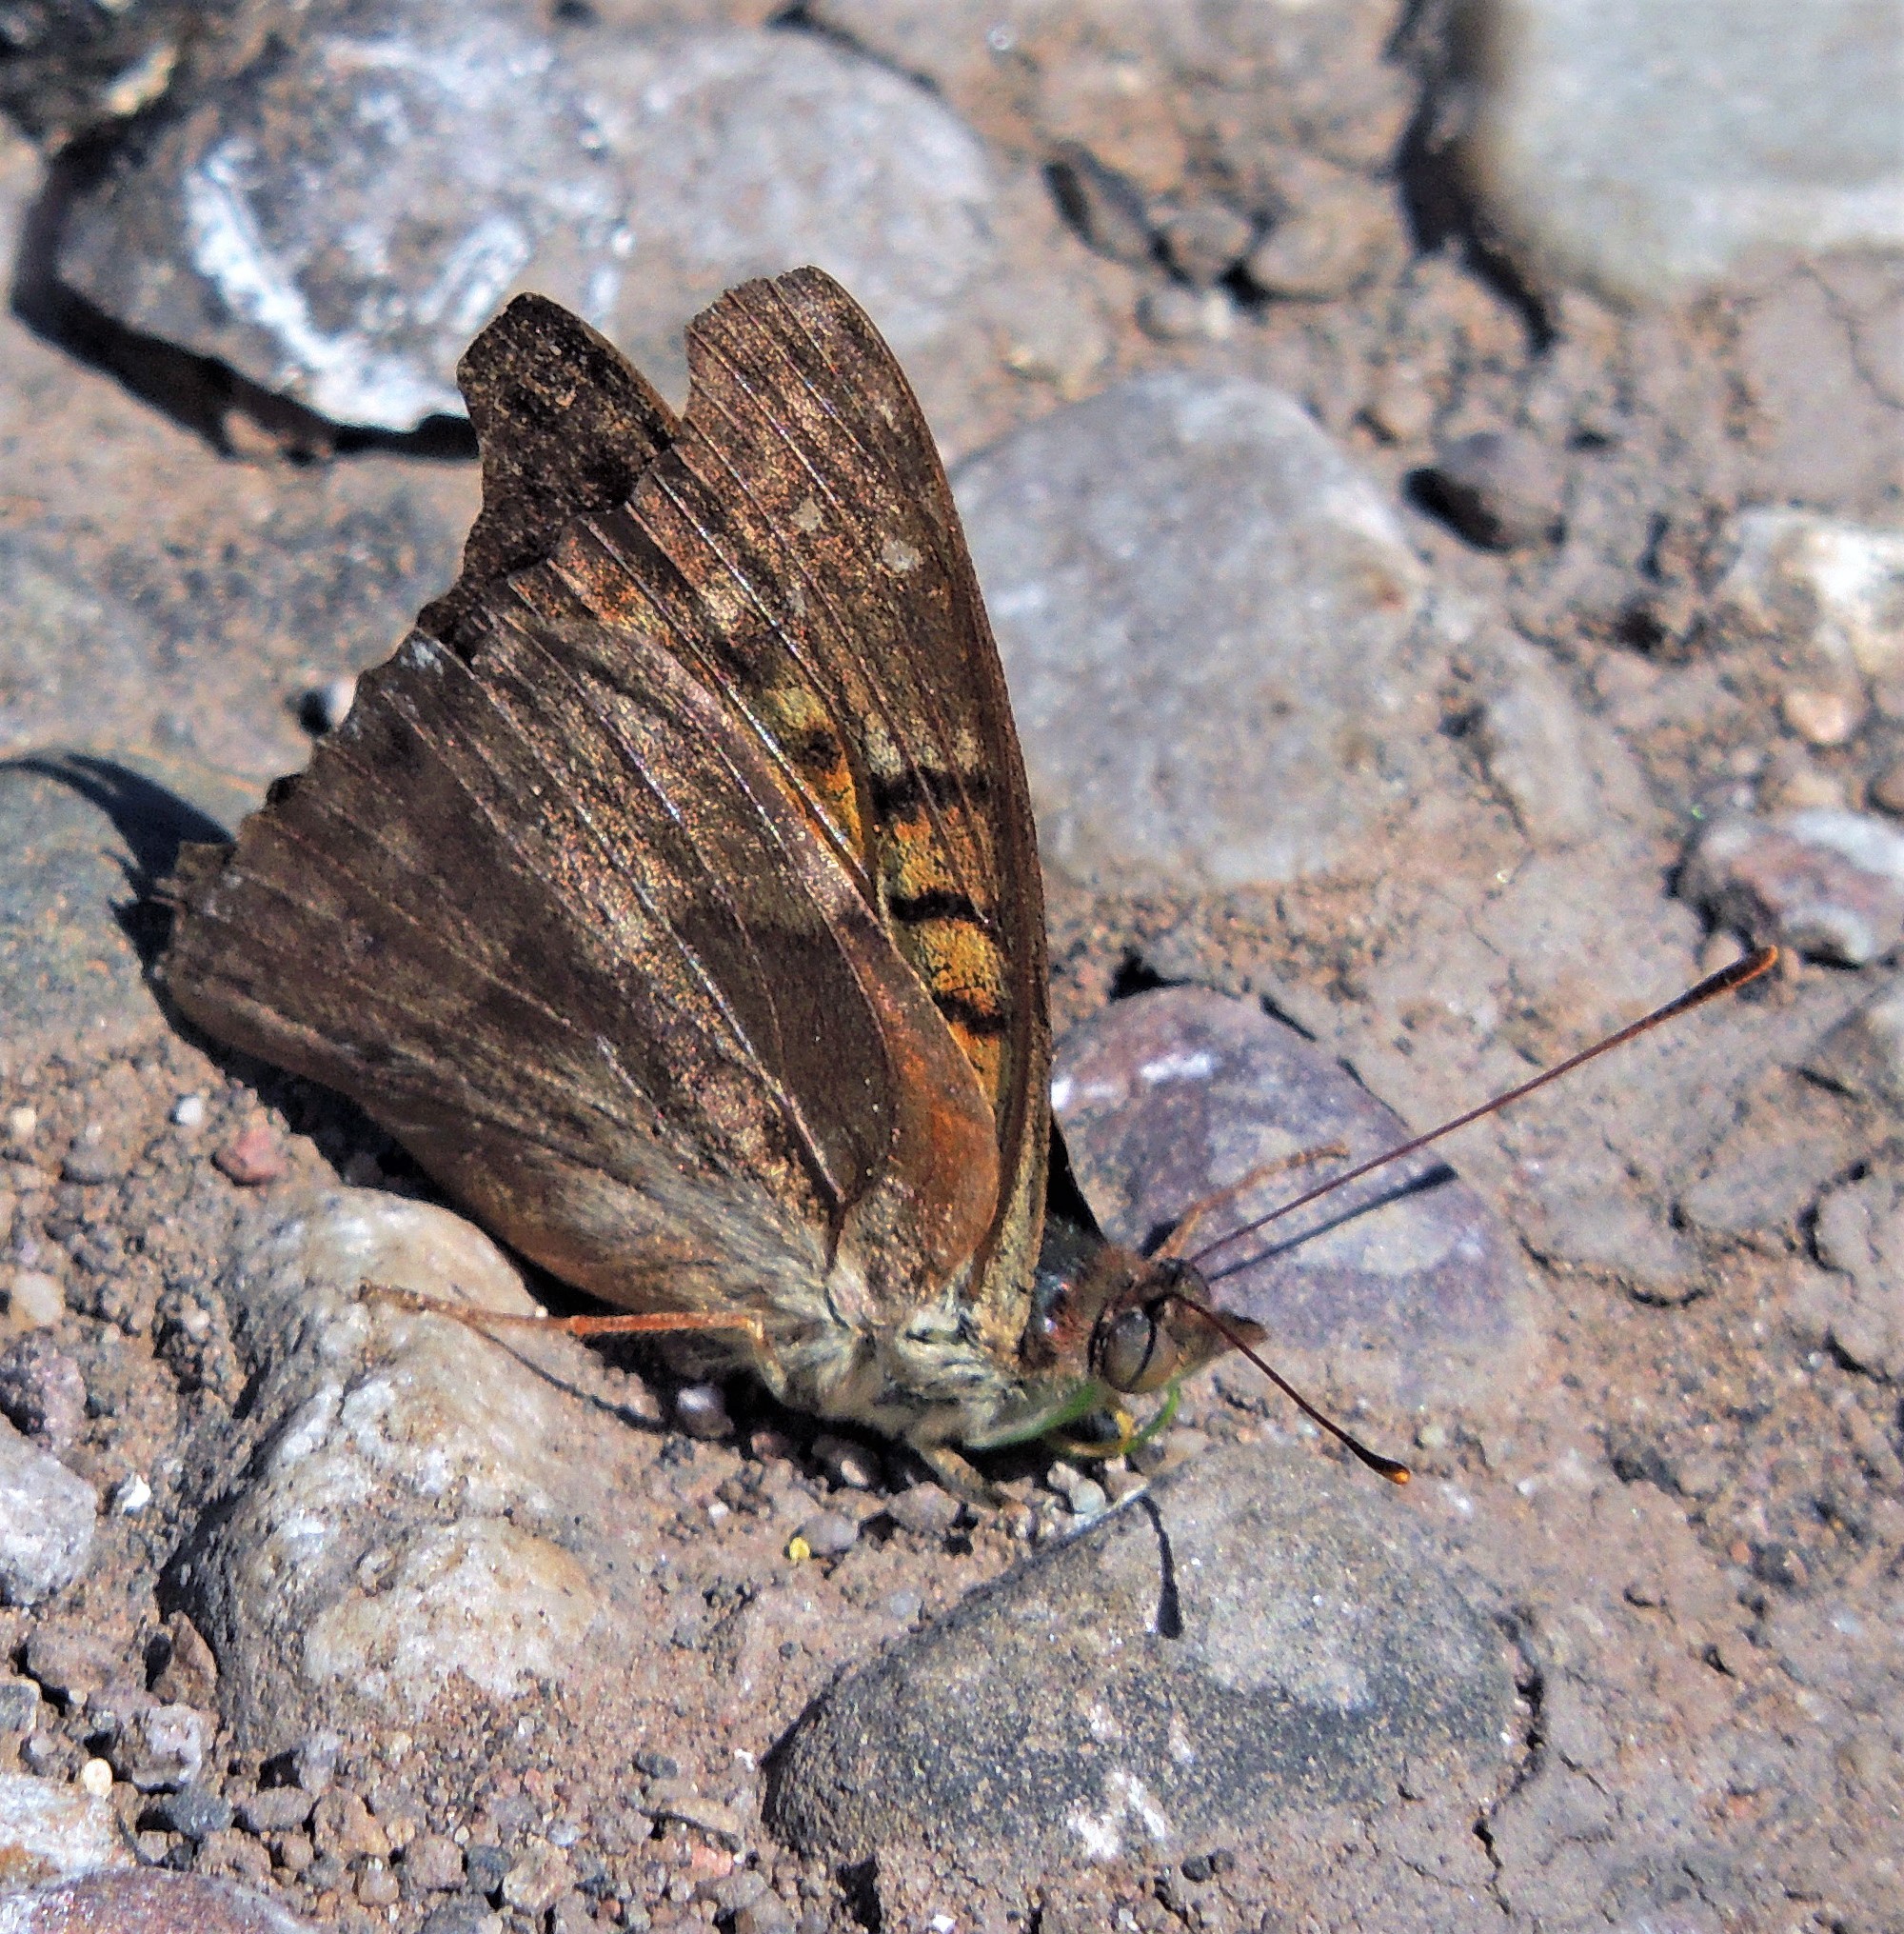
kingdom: Animalia
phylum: Arthropoda
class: Insecta
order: Lepidoptera
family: Nymphalidae
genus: Doxocopa
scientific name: Doxocopa cyane
